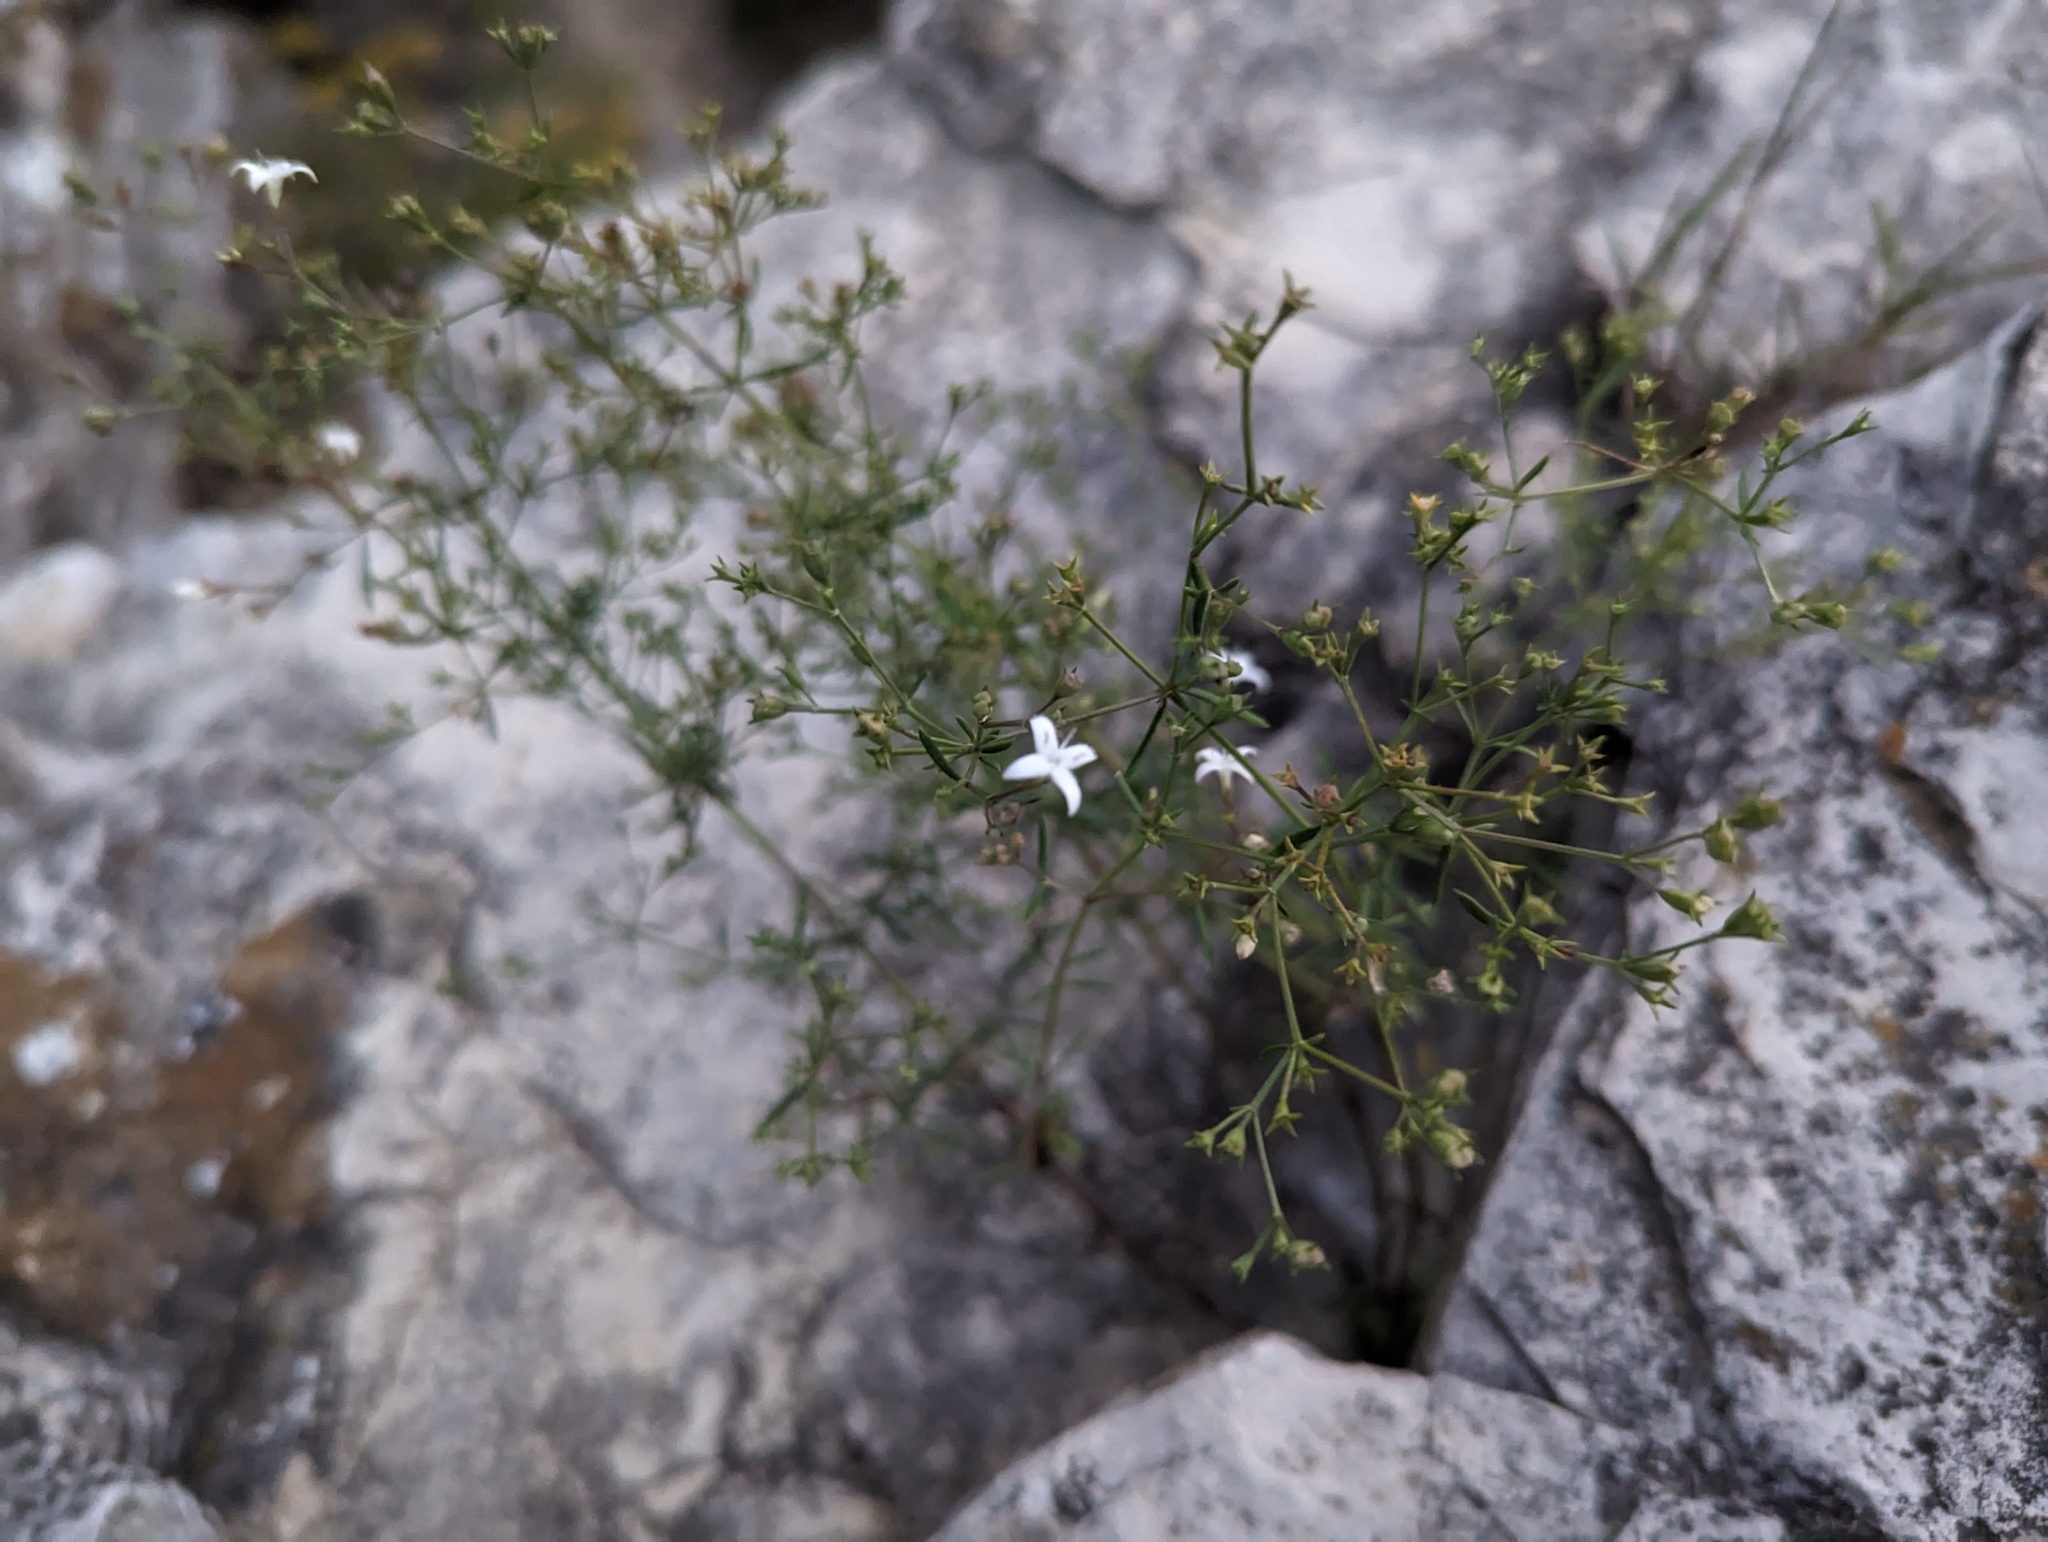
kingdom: Plantae
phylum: Tracheophyta
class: Magnoliopsida
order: Gentianales
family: Rubiaceae
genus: Stenaria
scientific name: Stenaria nigricans
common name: Diamondflowers
